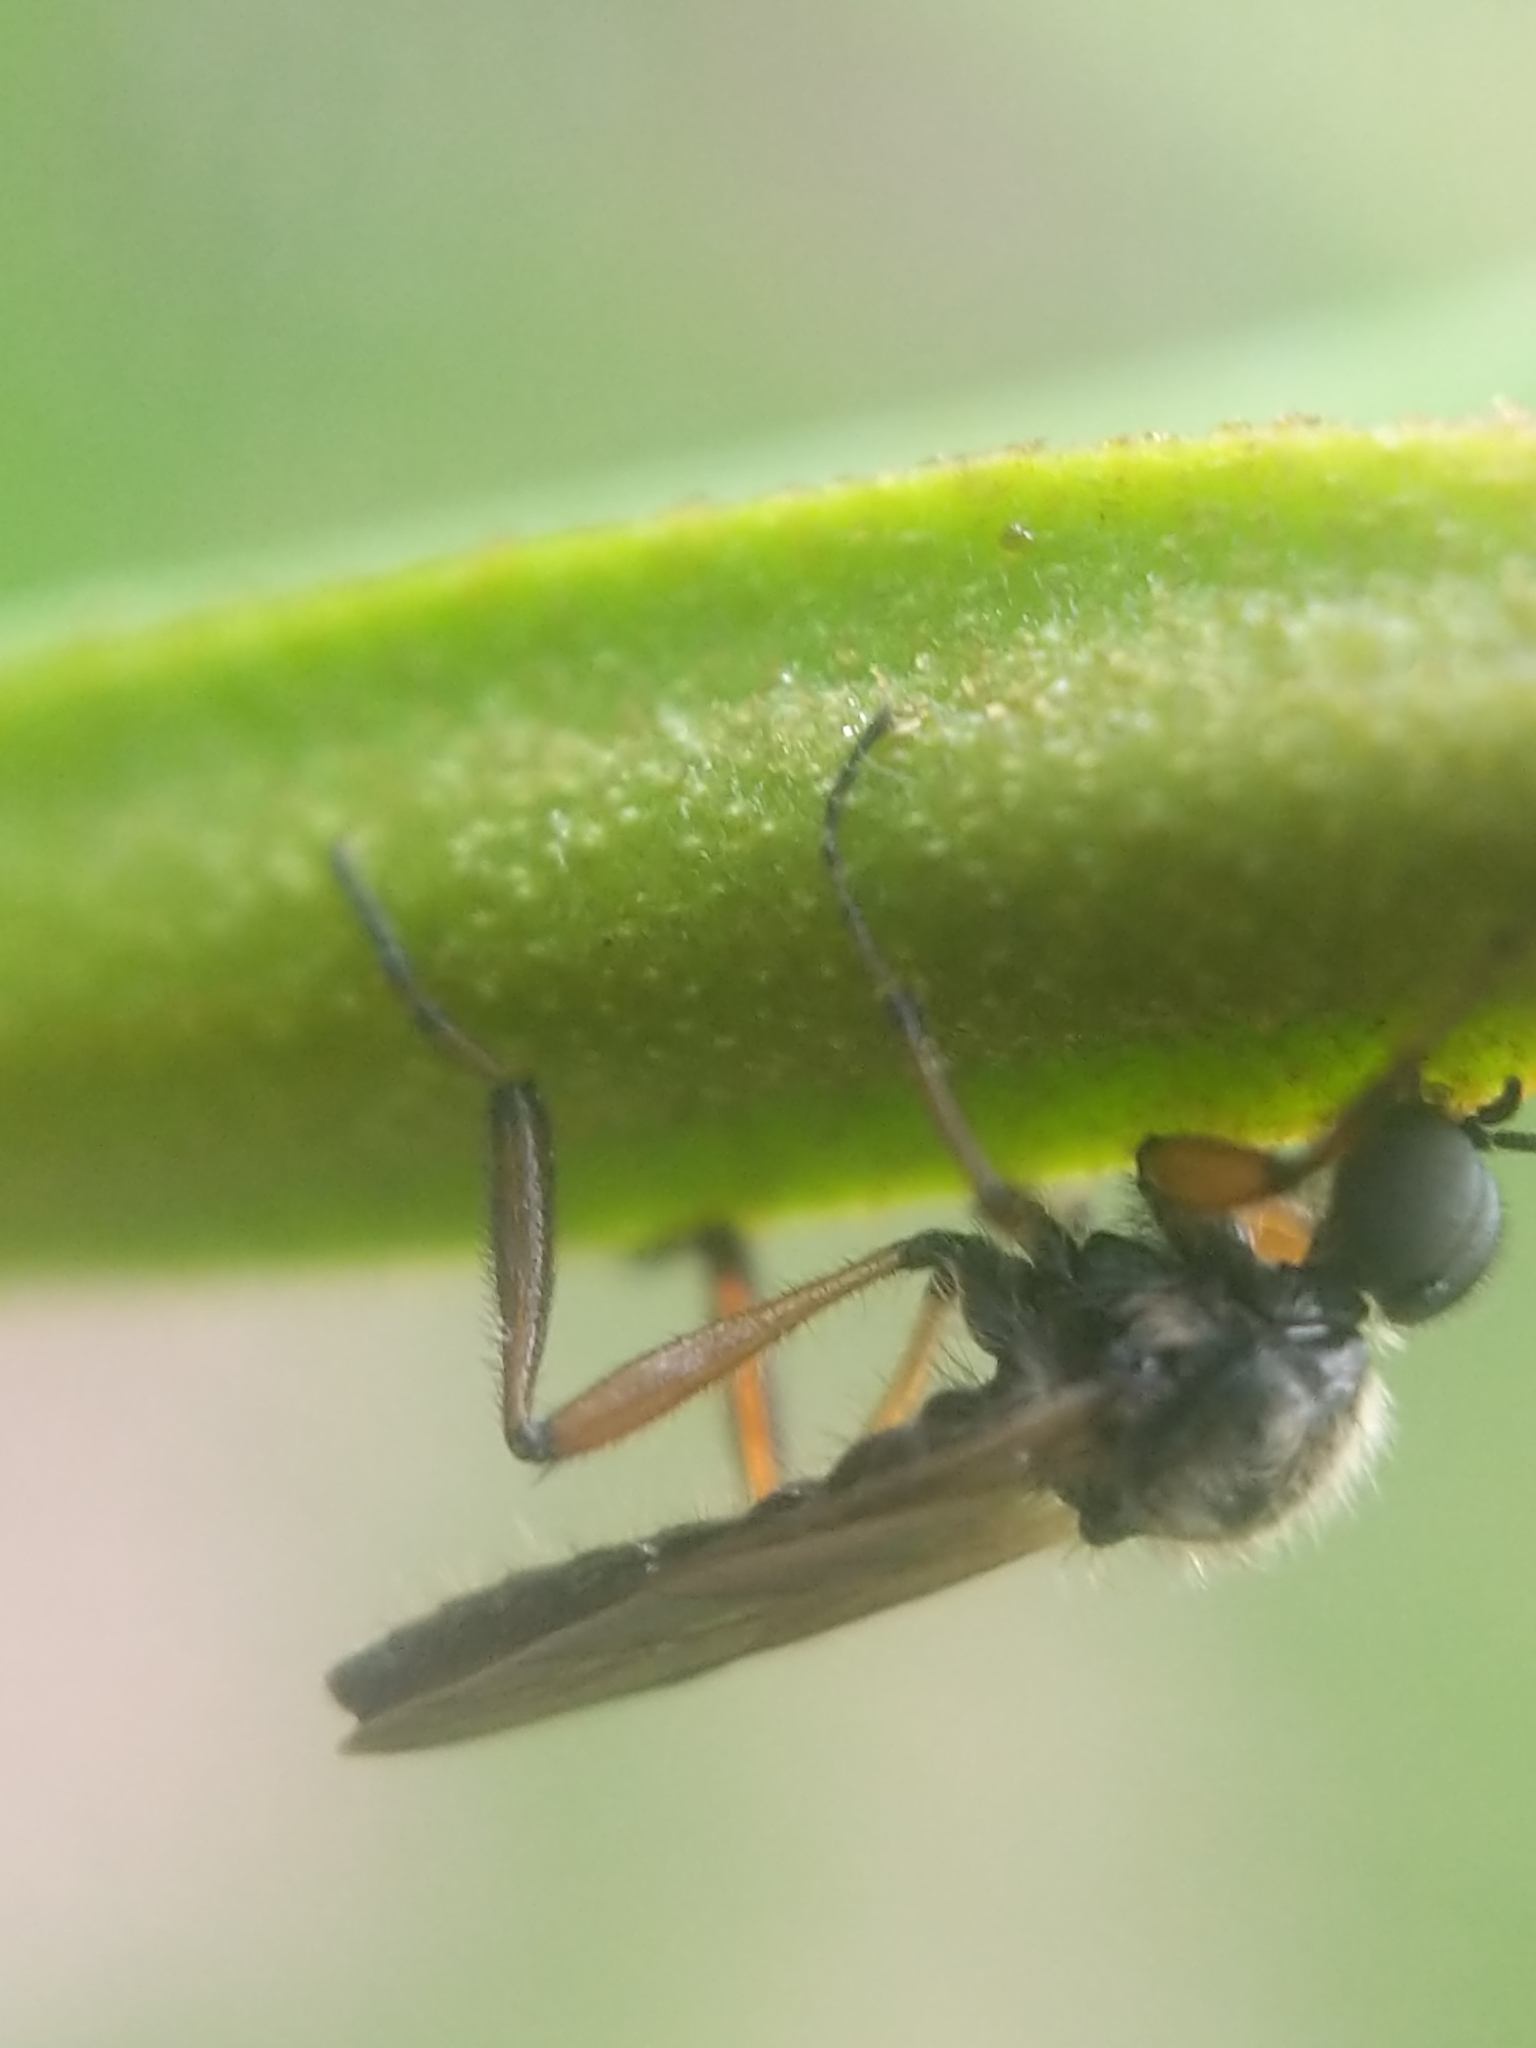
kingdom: Animalia
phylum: Arthropoda
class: Insecta
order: Diptera
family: Bibionidae
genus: Bibio
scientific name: Bibio articulatus
